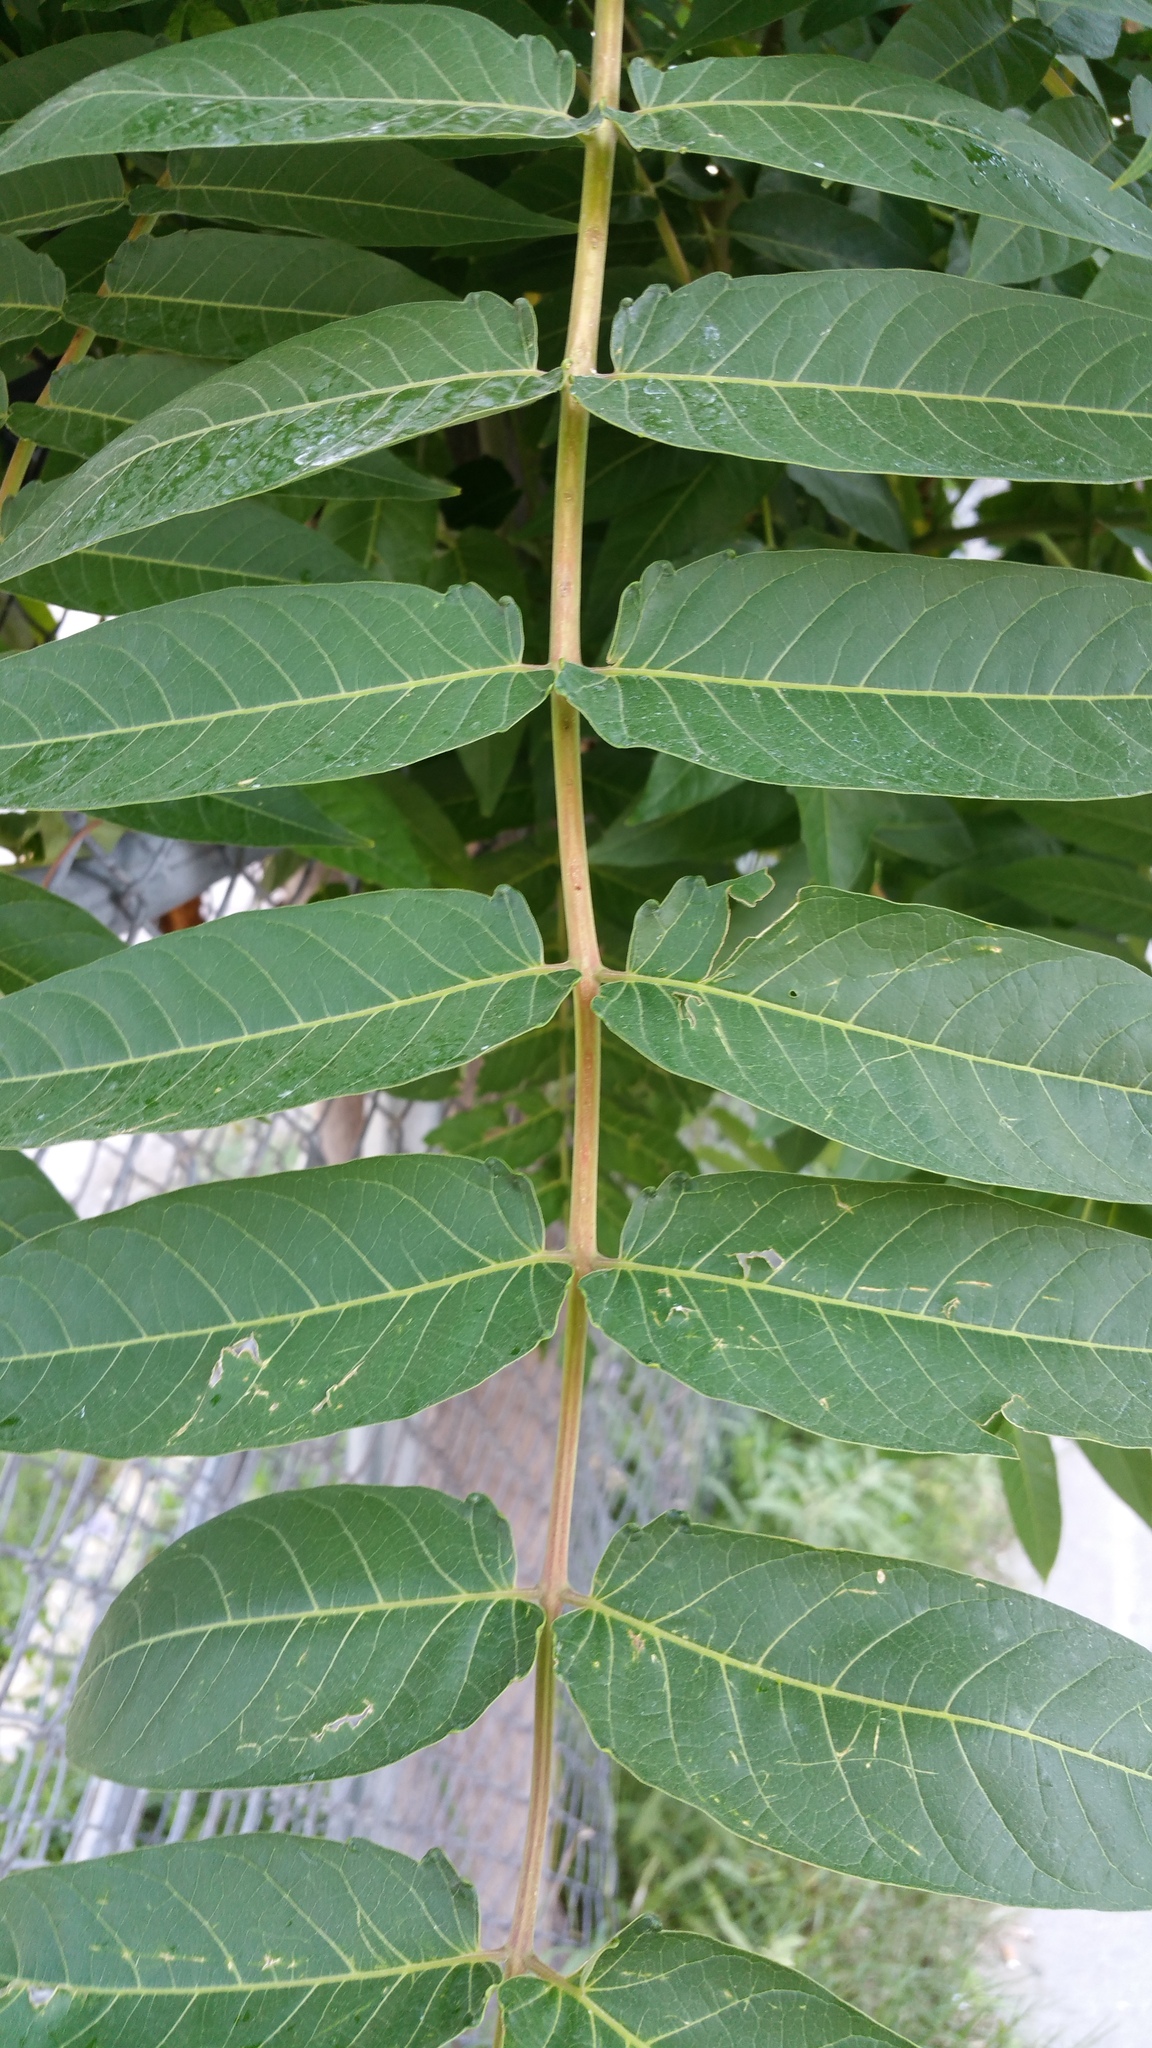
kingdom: Plantae
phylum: Tracheophyta
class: Magnoliopsida
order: Sapindales
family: Simaroubaceae
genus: Ailanthus
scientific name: Ailanthus altissima
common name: Tree-of-heaven
